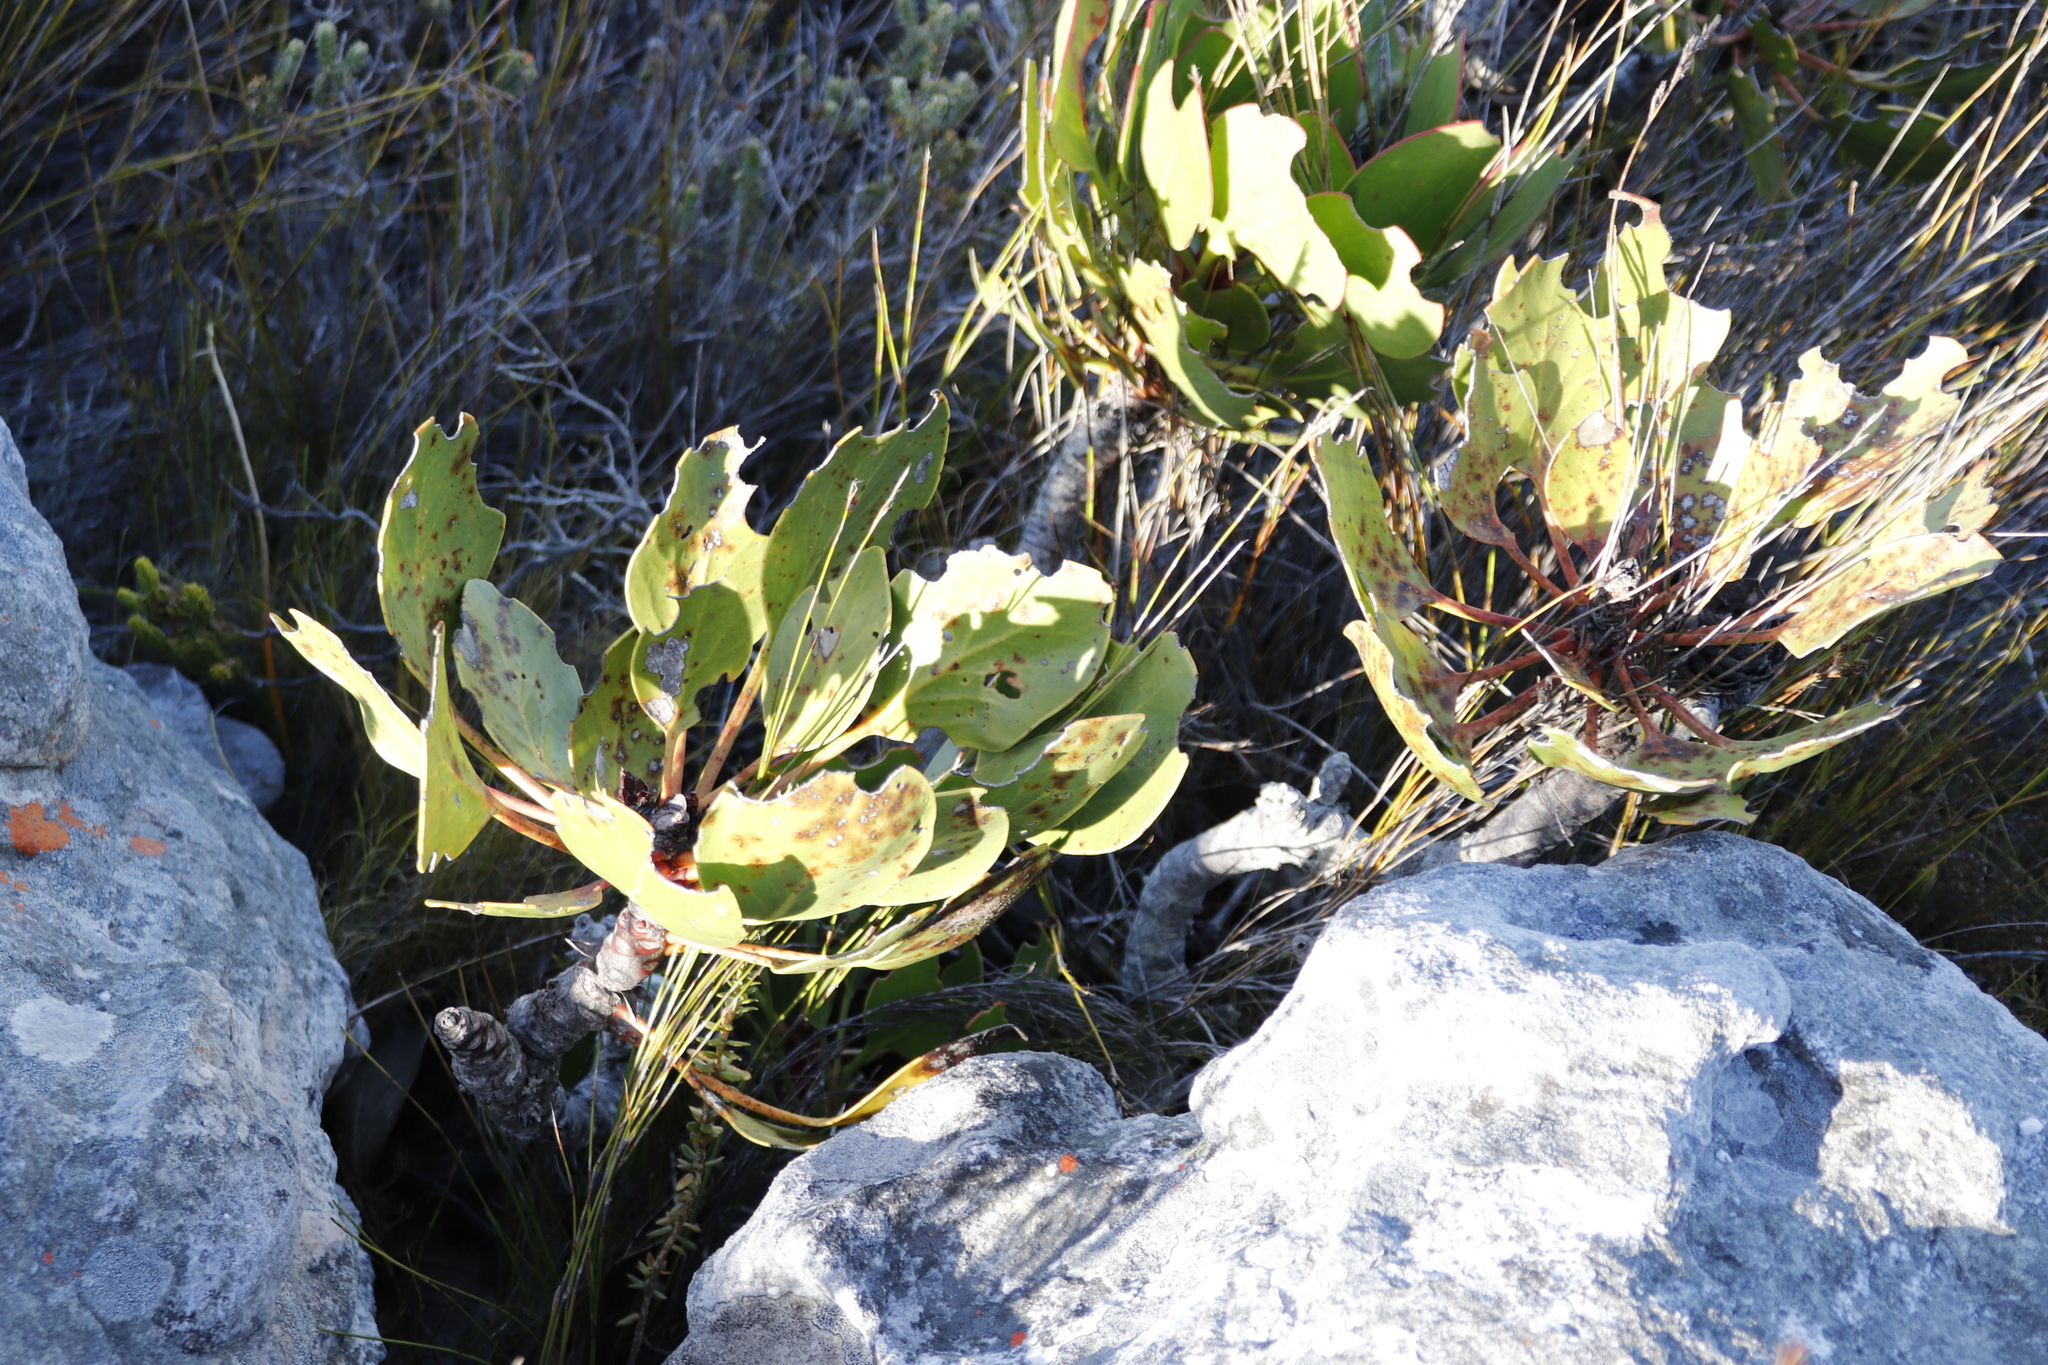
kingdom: Plantae
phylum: Tracheophyta
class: Magnoliopsida
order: Proteales
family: Proteaceae
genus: Protea
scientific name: Protea cynaroides
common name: King protea
